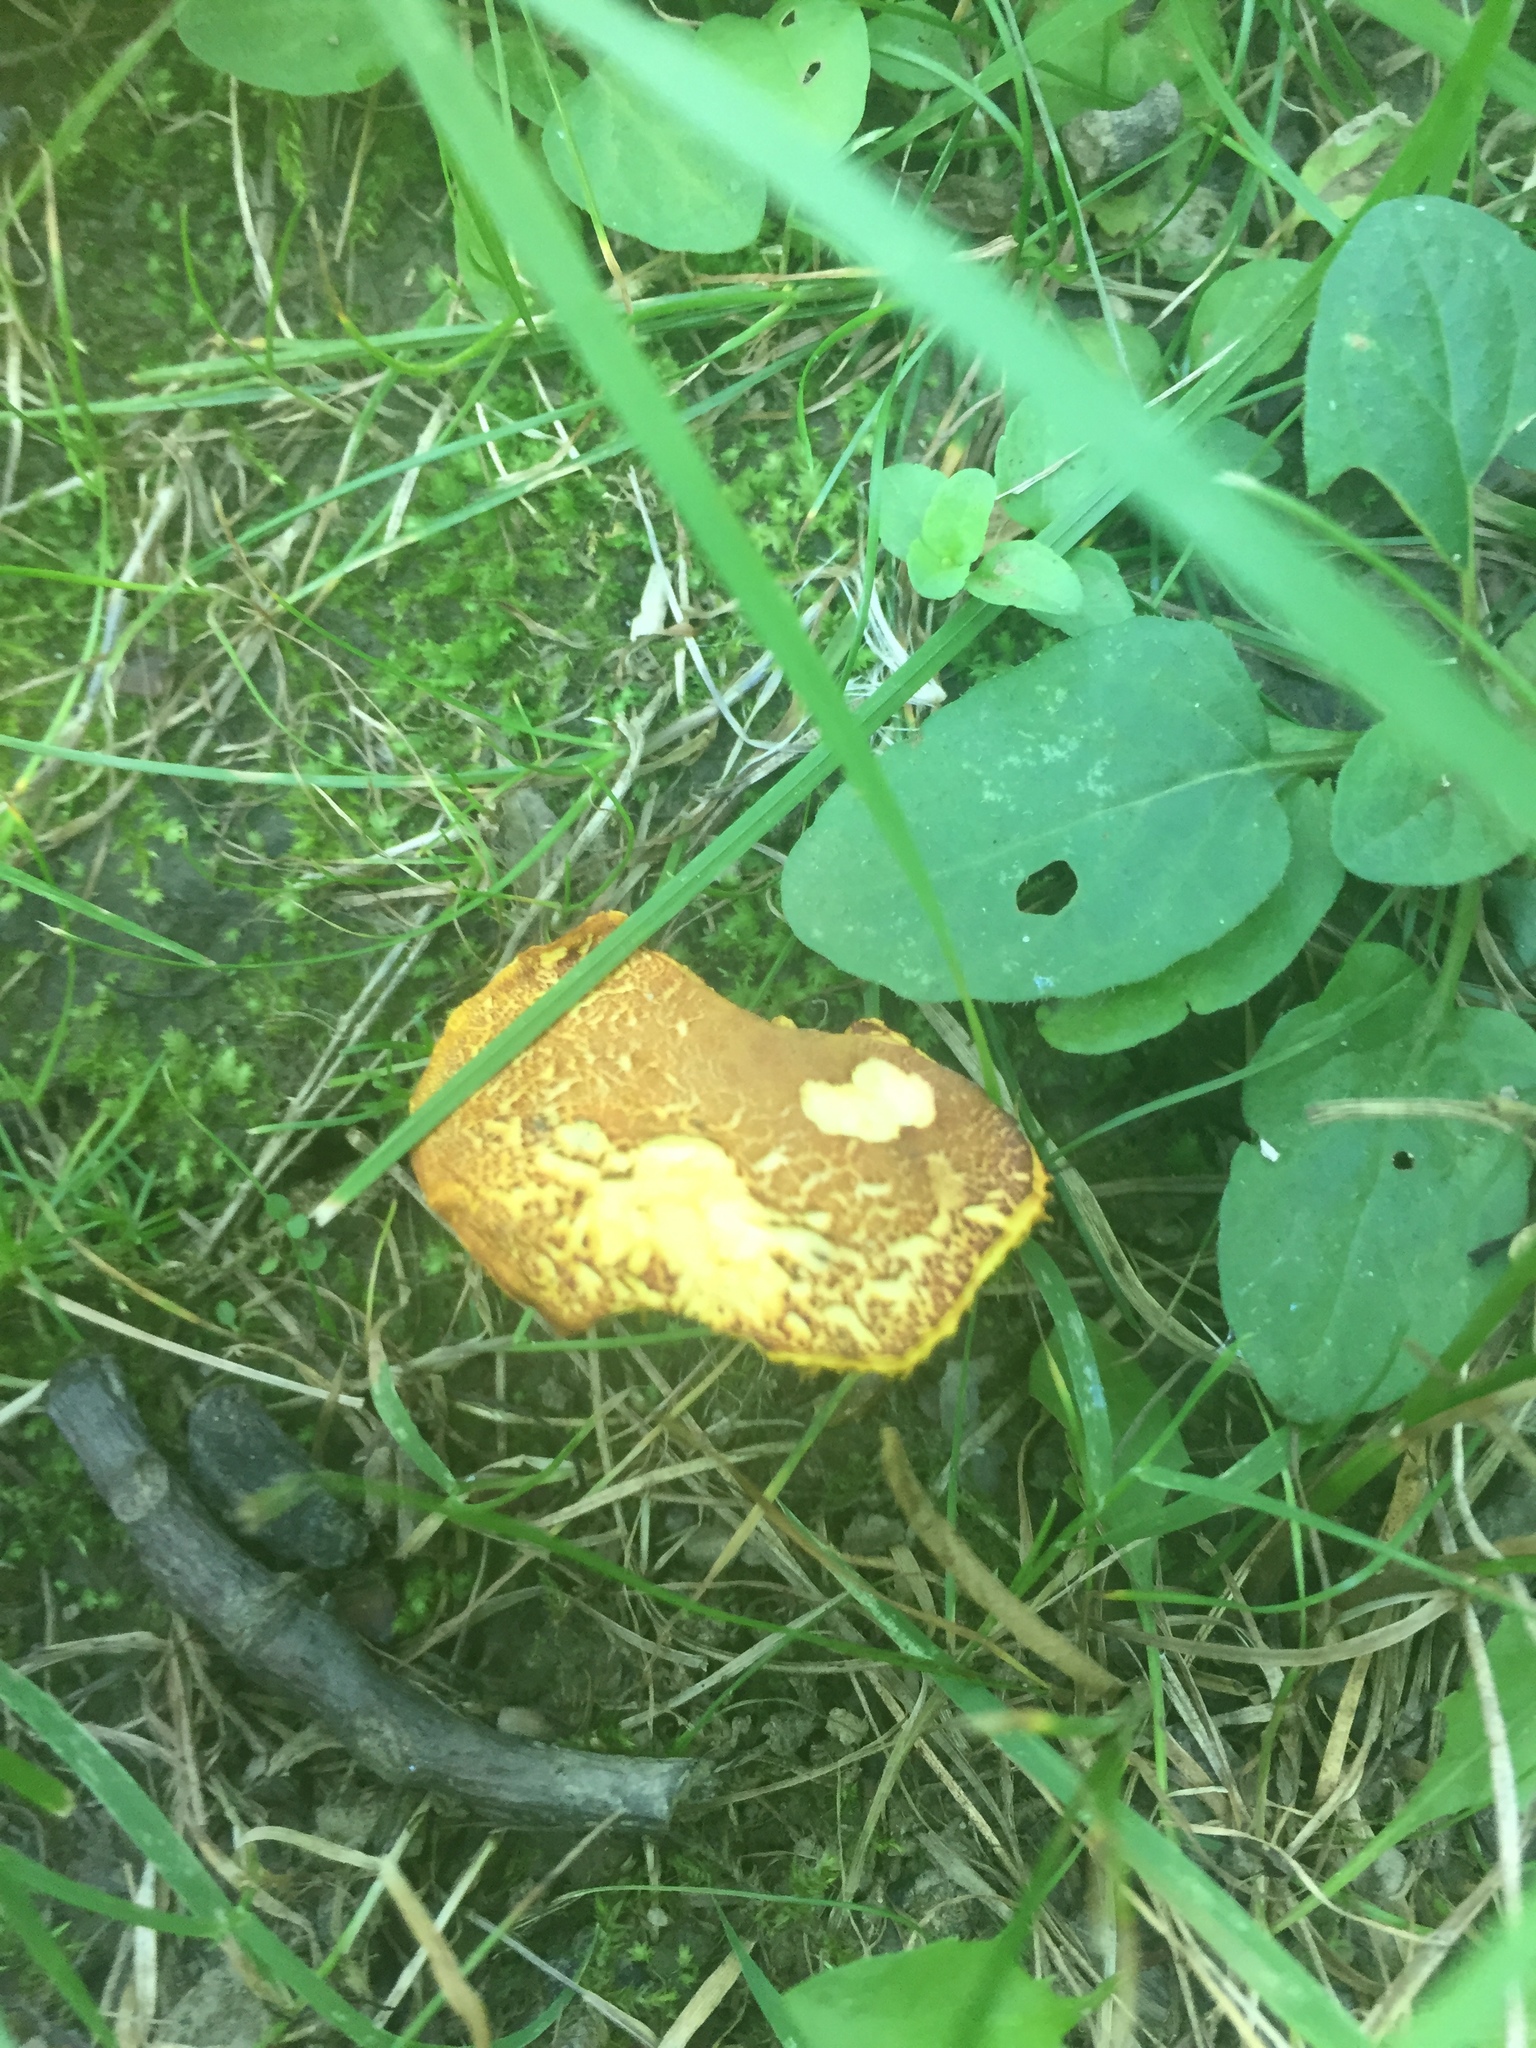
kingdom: Fungi
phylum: Basidiomycota
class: Agaricomycetes
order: Boletales
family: Boletaceae
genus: Phylloporus
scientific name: Phylloporus rhodoxanthus
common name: Golden gilled bolete
